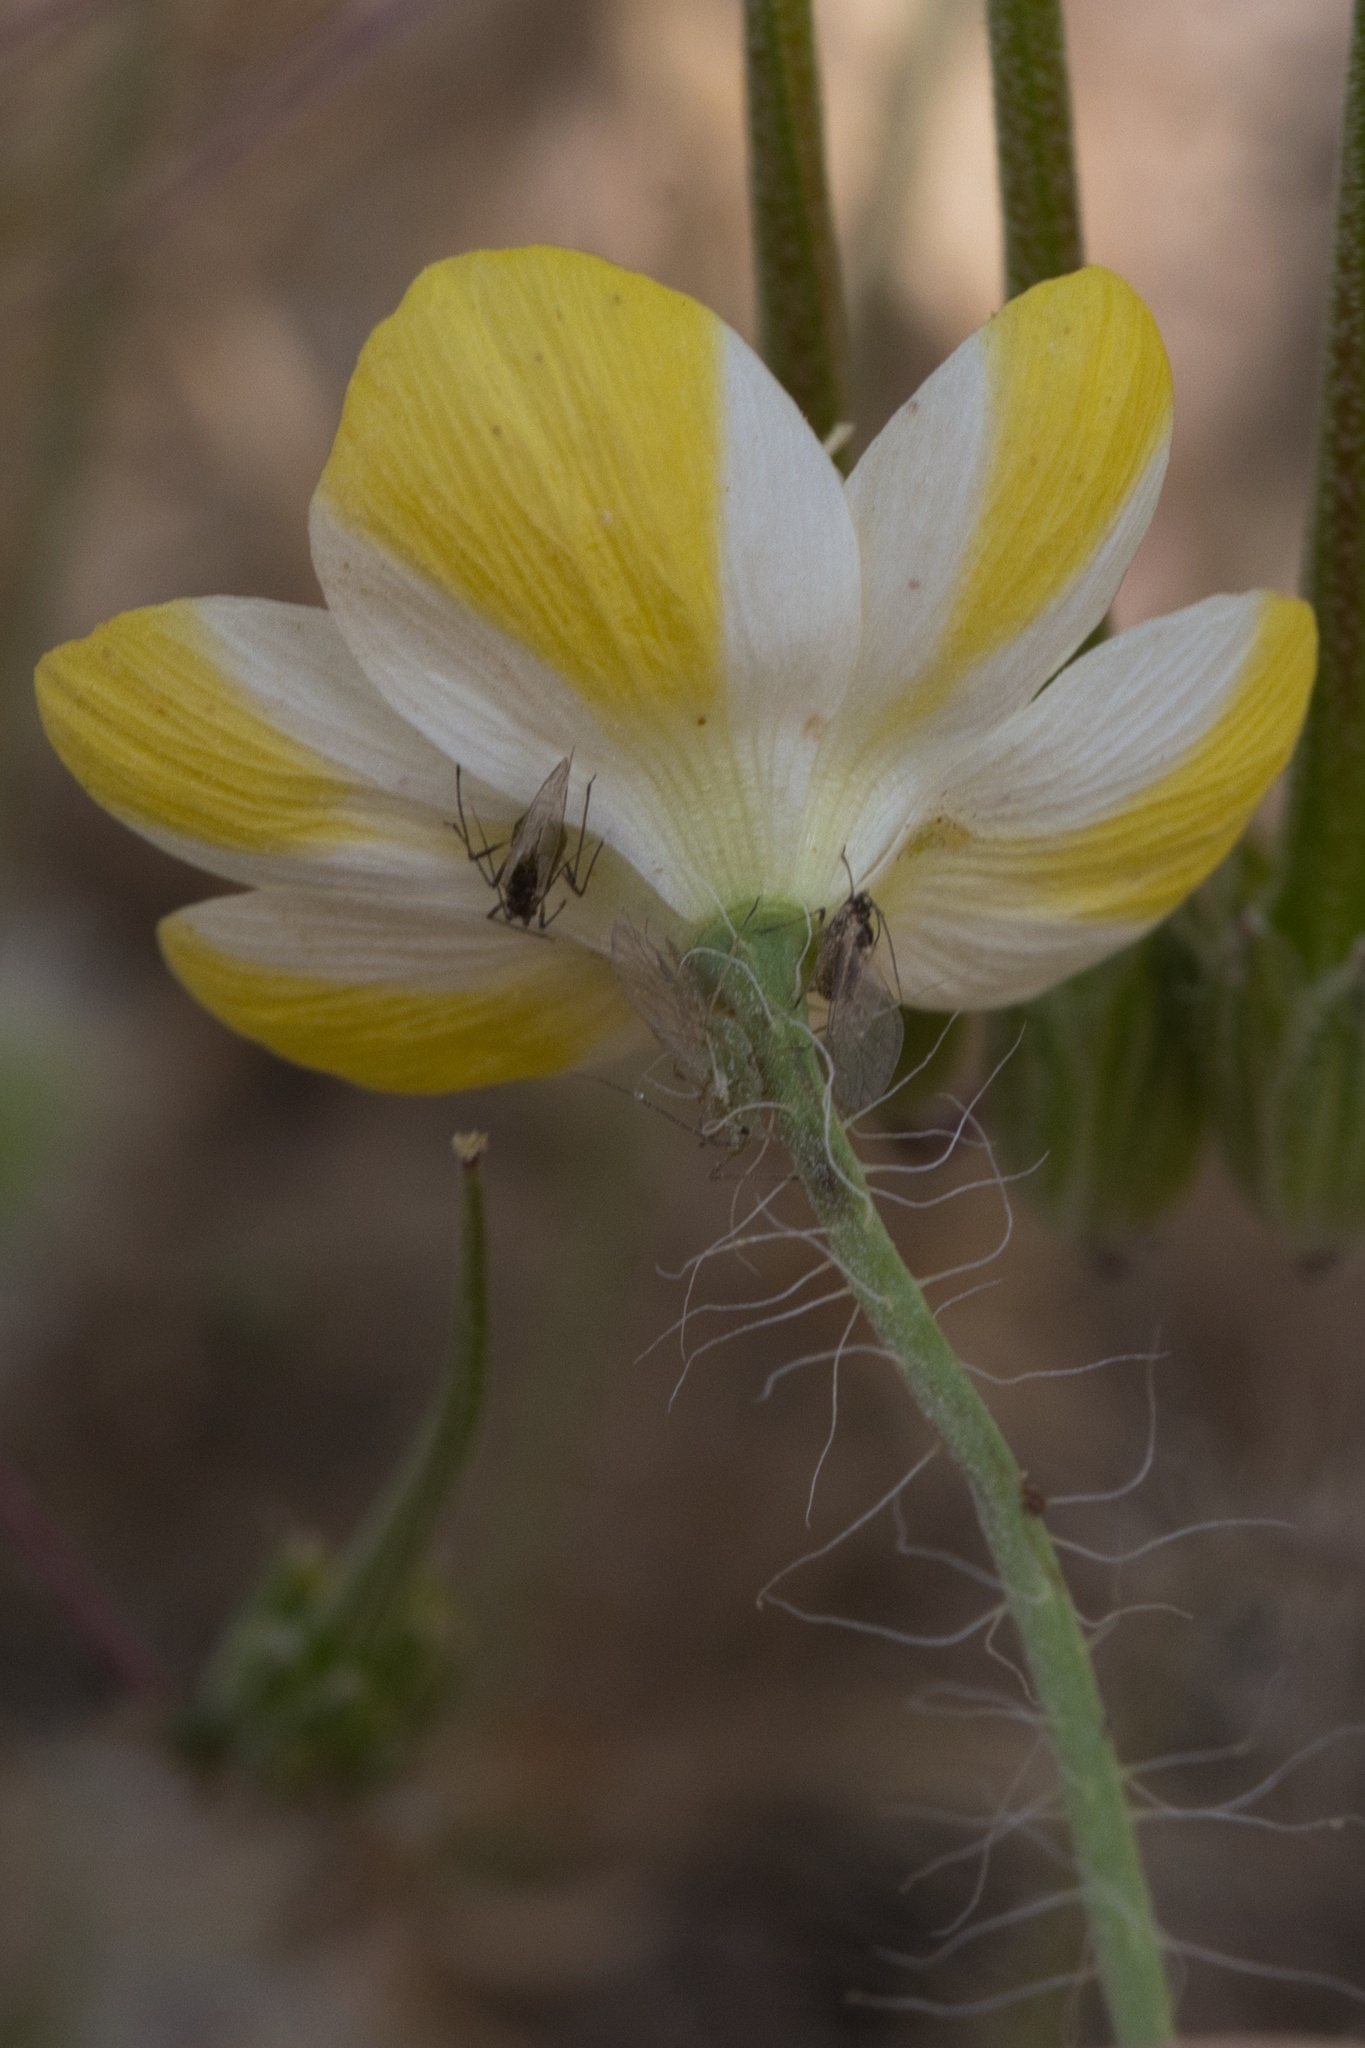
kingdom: Plantae
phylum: Tracheophyta
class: Magnoliopsida
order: Ranunculales
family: Papaveraceae
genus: Platystemon
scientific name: Platystemon californicus
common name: Cream-cups
